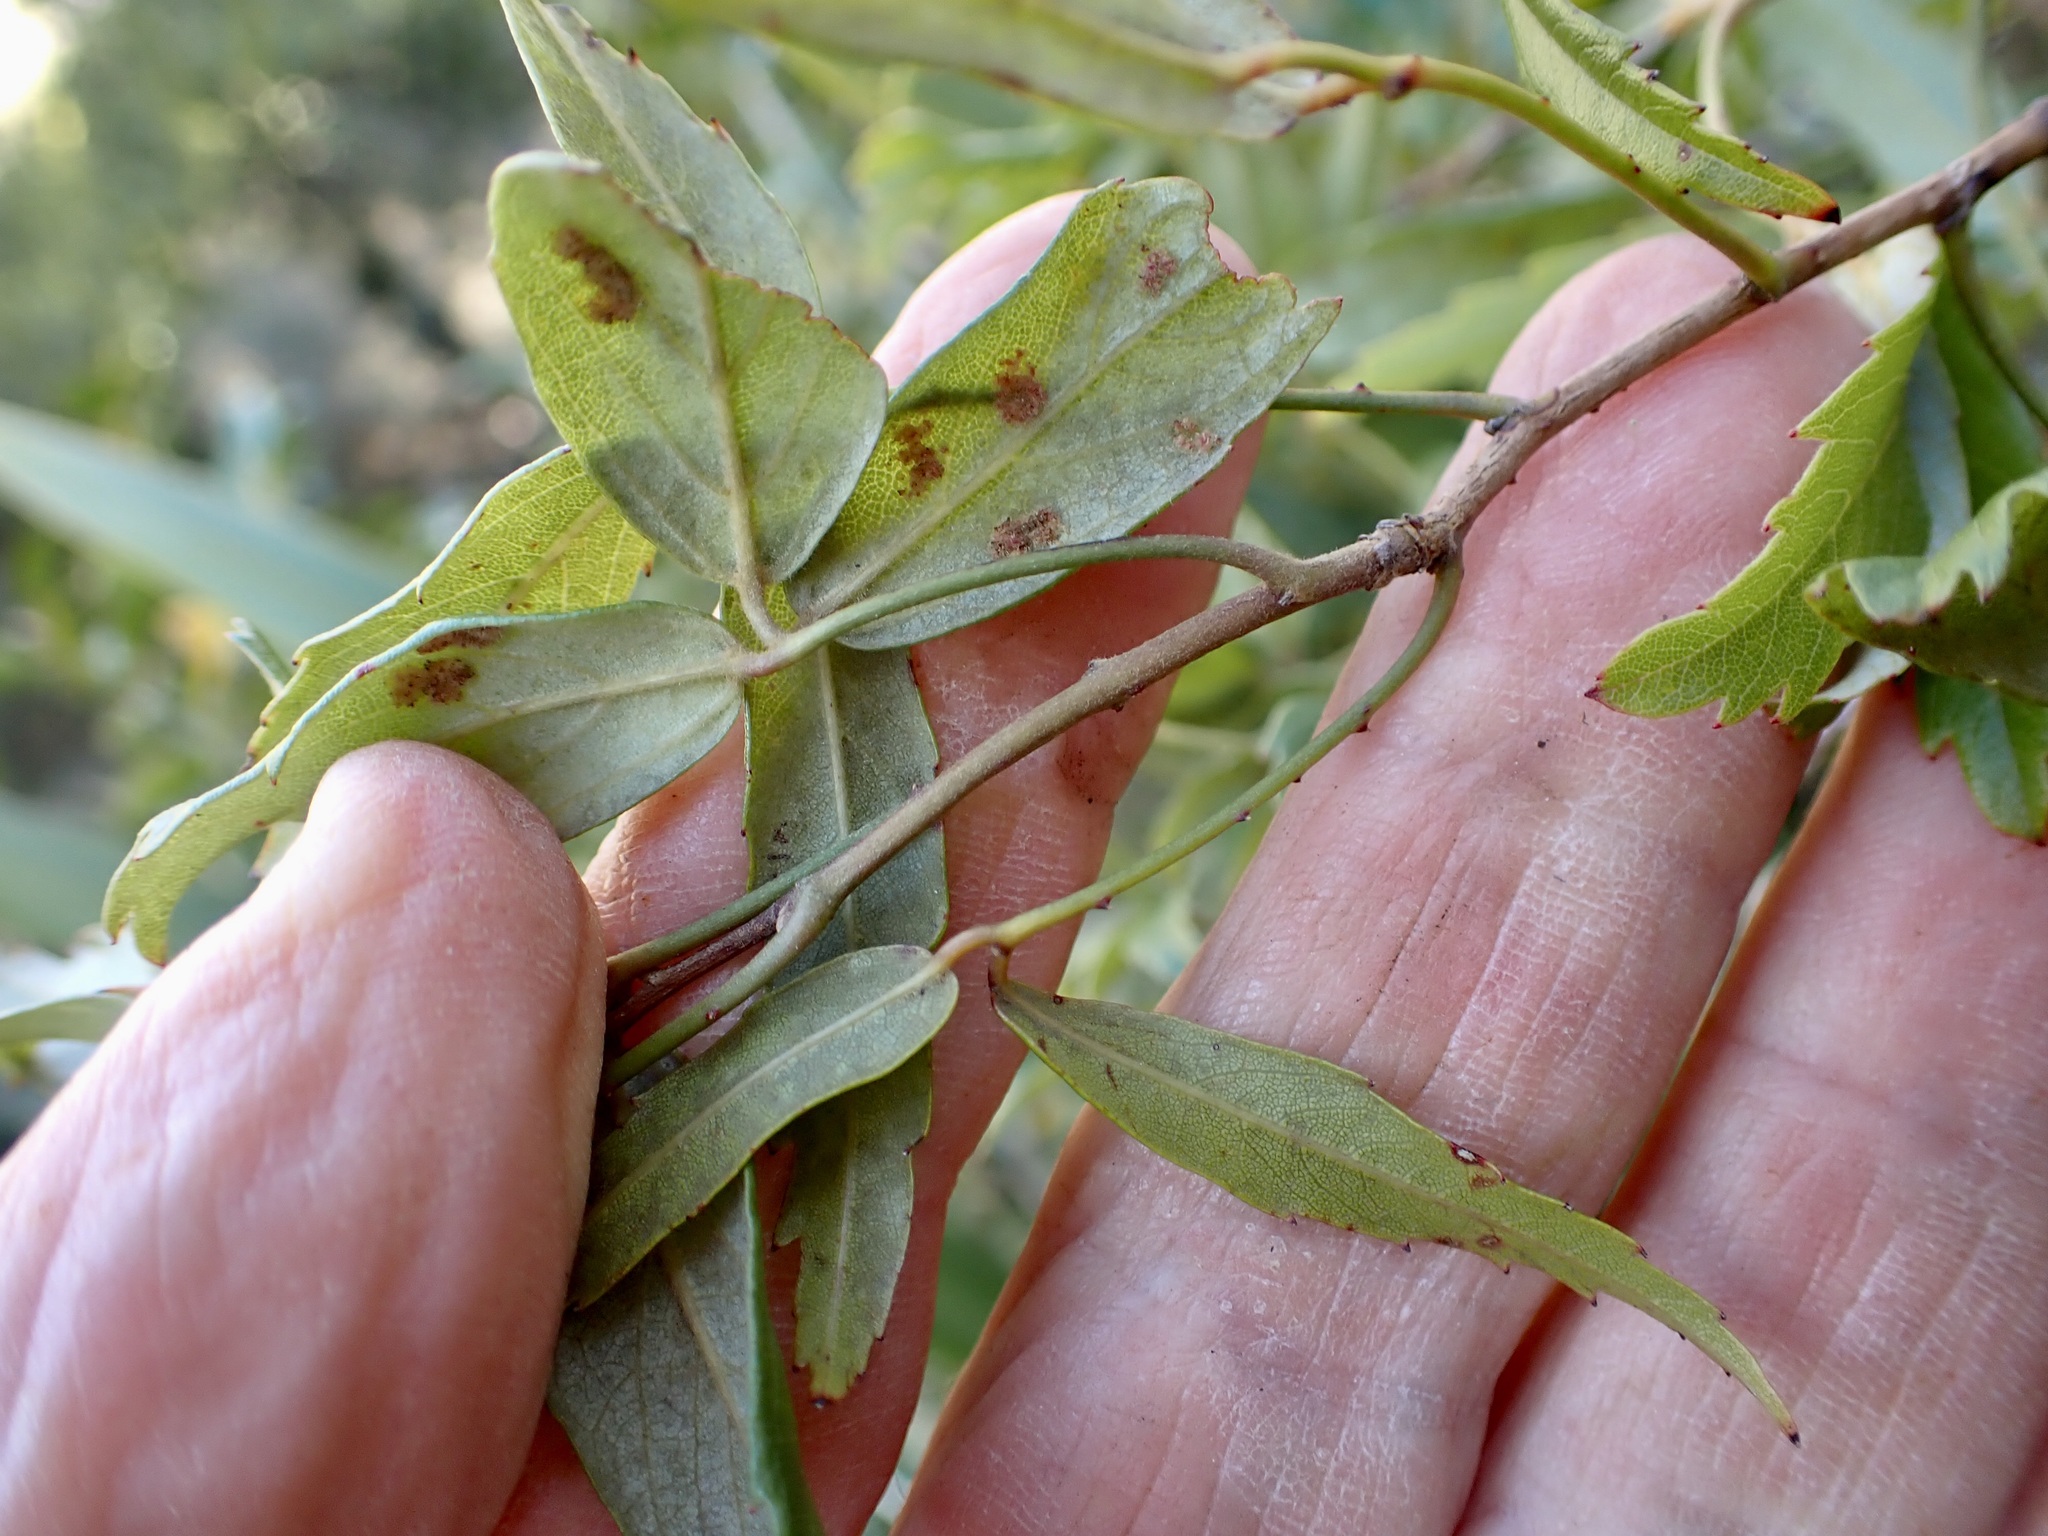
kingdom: Plantae
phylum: Tracheophyta
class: Magnoliopsida
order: Rosales
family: Rosaceae
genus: Rubus
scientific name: Rubus schmidelioides
